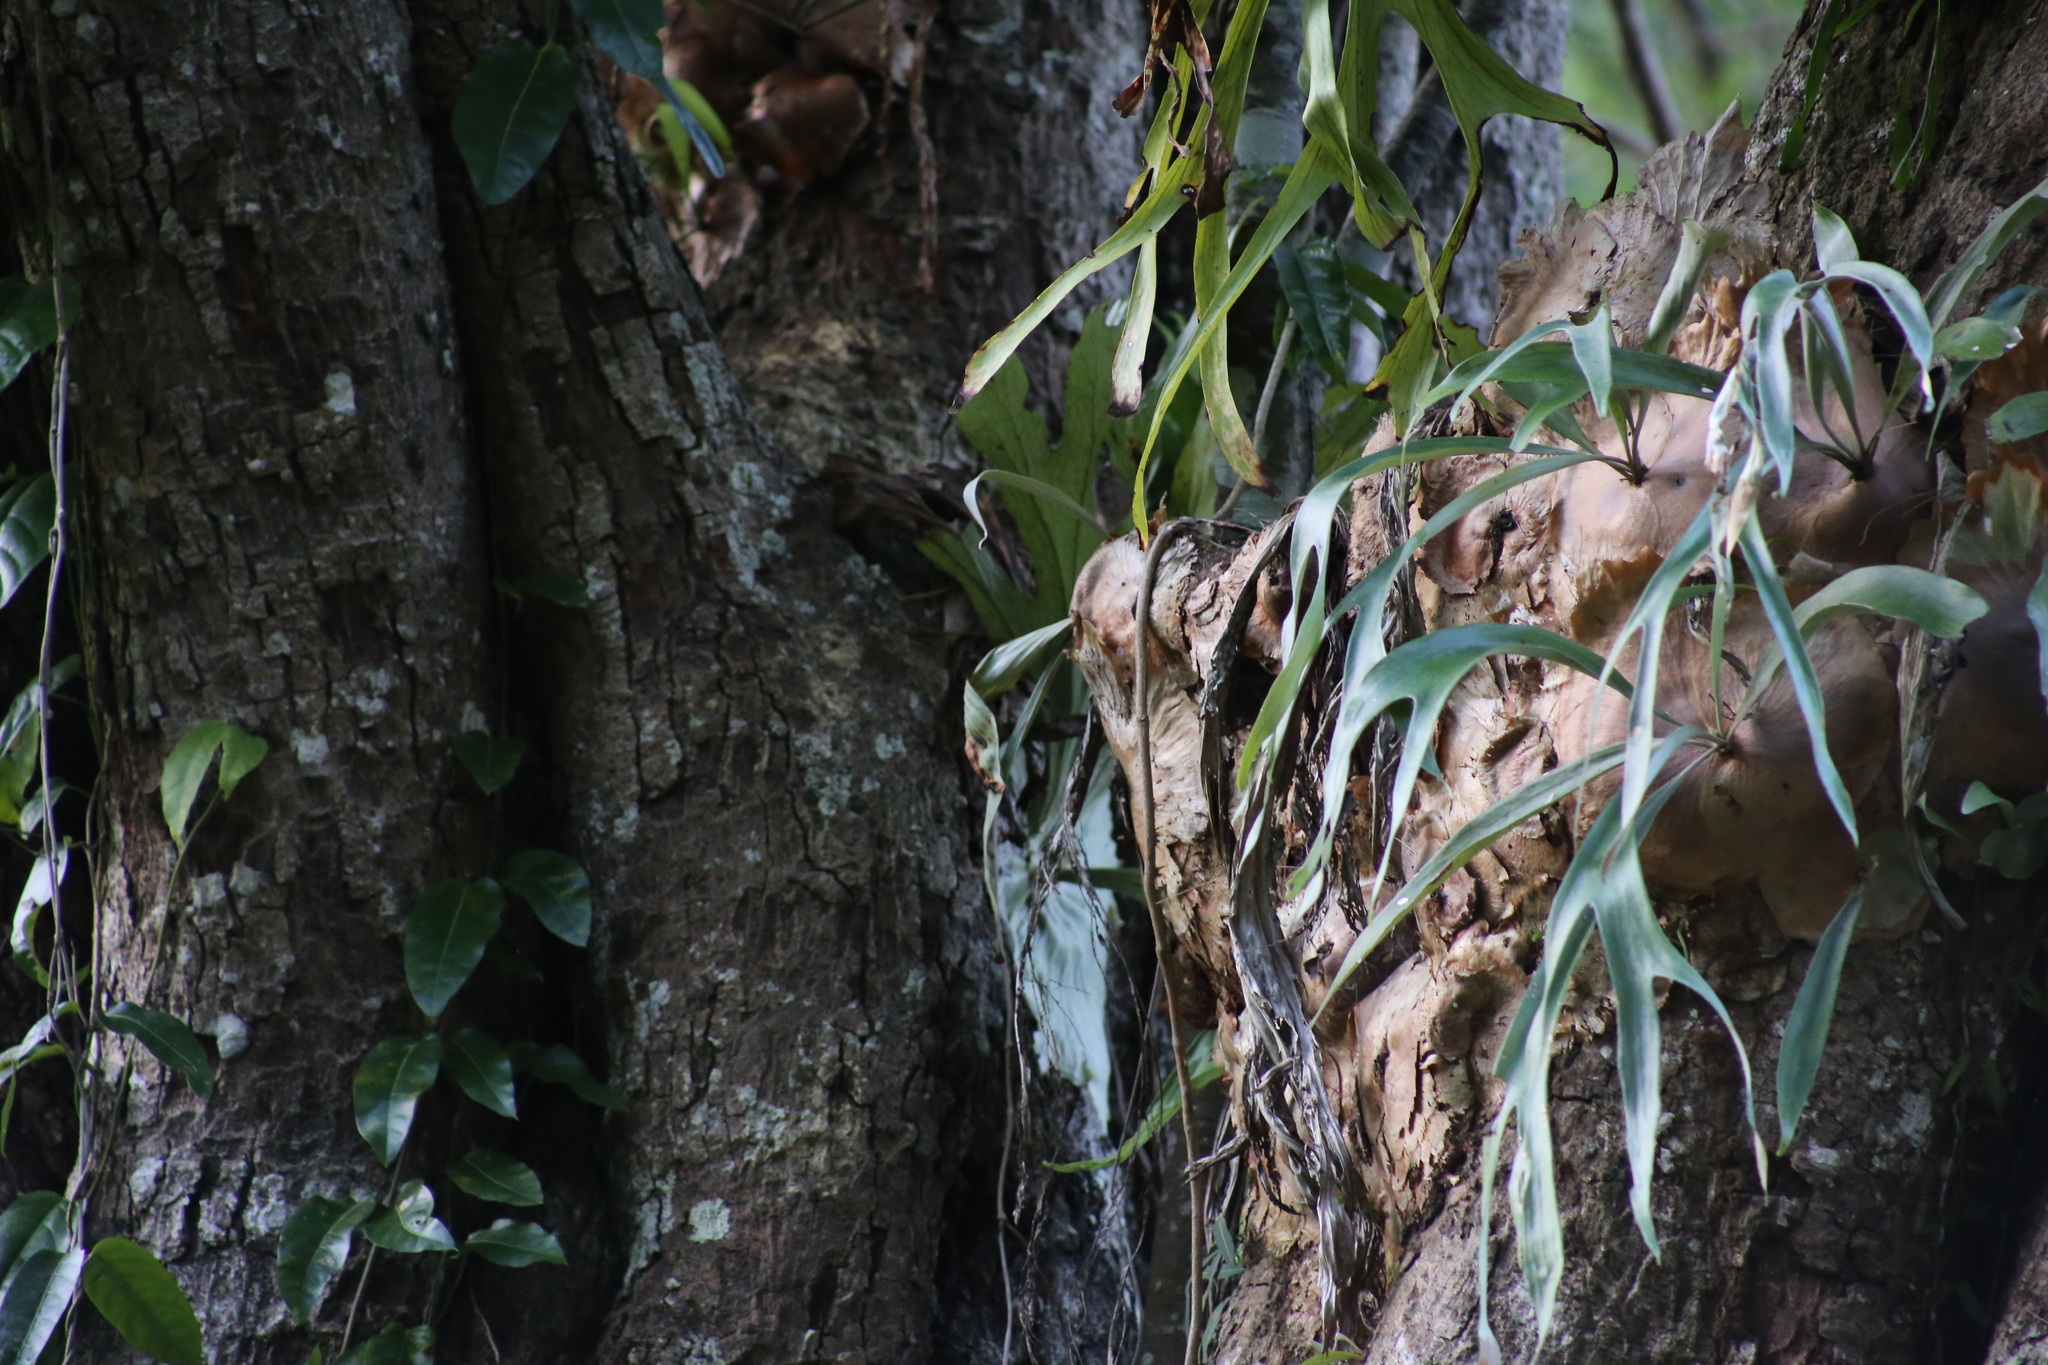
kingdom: Plantae
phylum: Tracheophyta
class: Polypodiopsida
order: Polypodiales
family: Polypodiaceae
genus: Platycerium
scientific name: Platycerium bifurcatum
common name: Elkhorn fern
